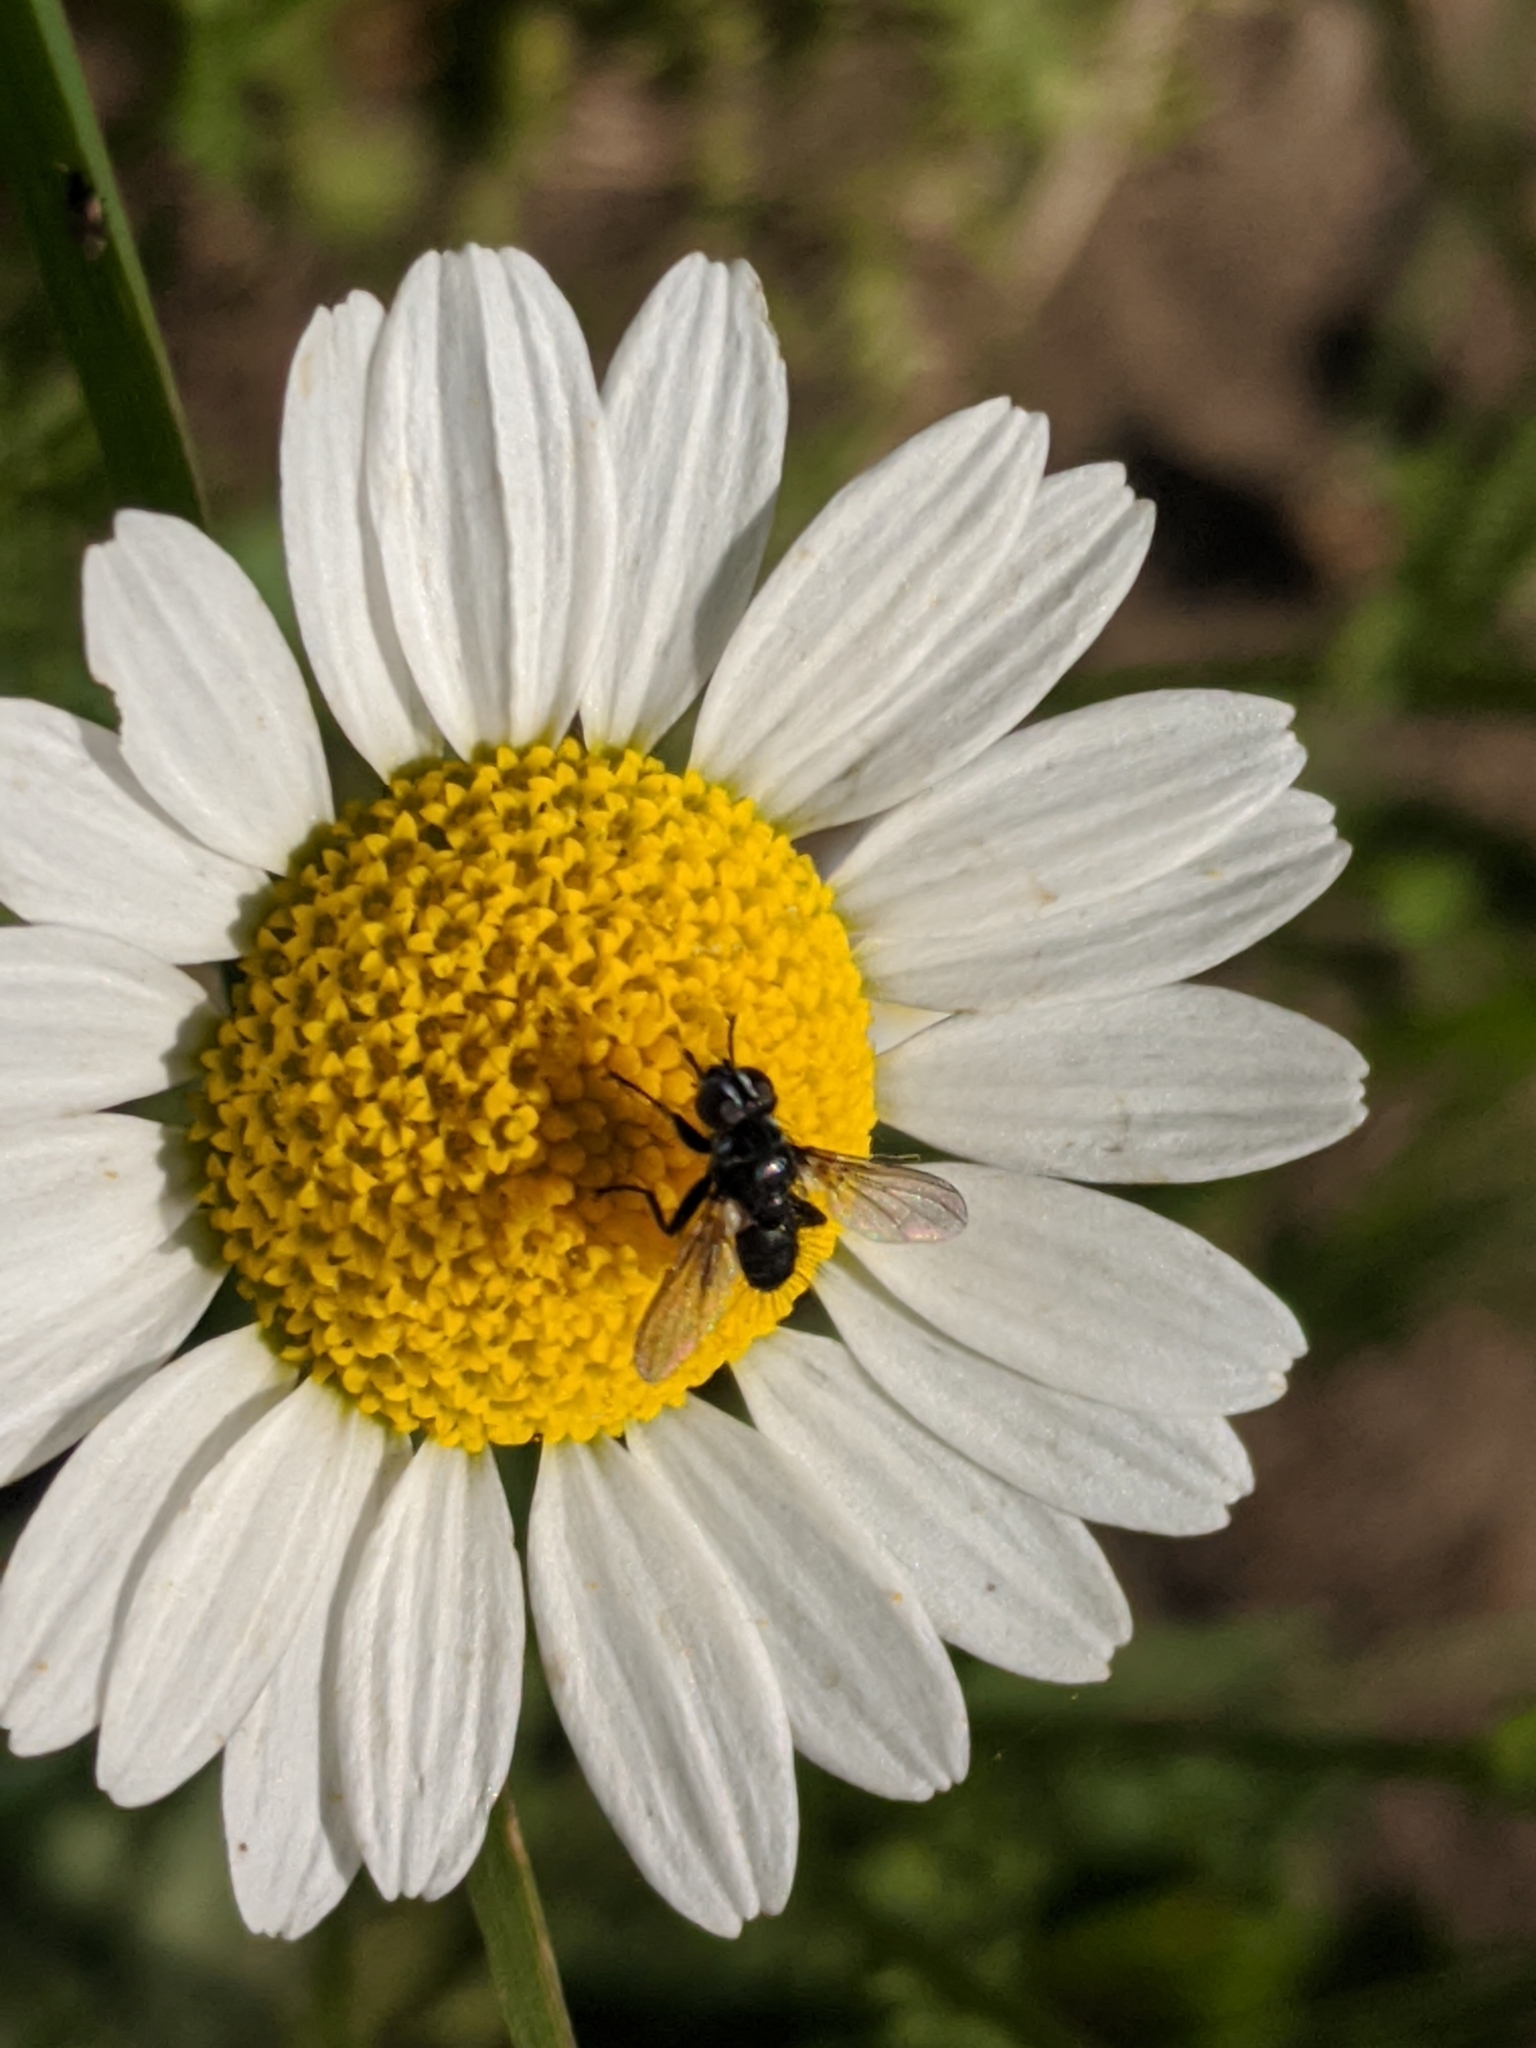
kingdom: Animalia
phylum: Arthropoda
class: Insecta
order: Diptera
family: Tachinidae
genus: Phania
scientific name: Phania funesta
